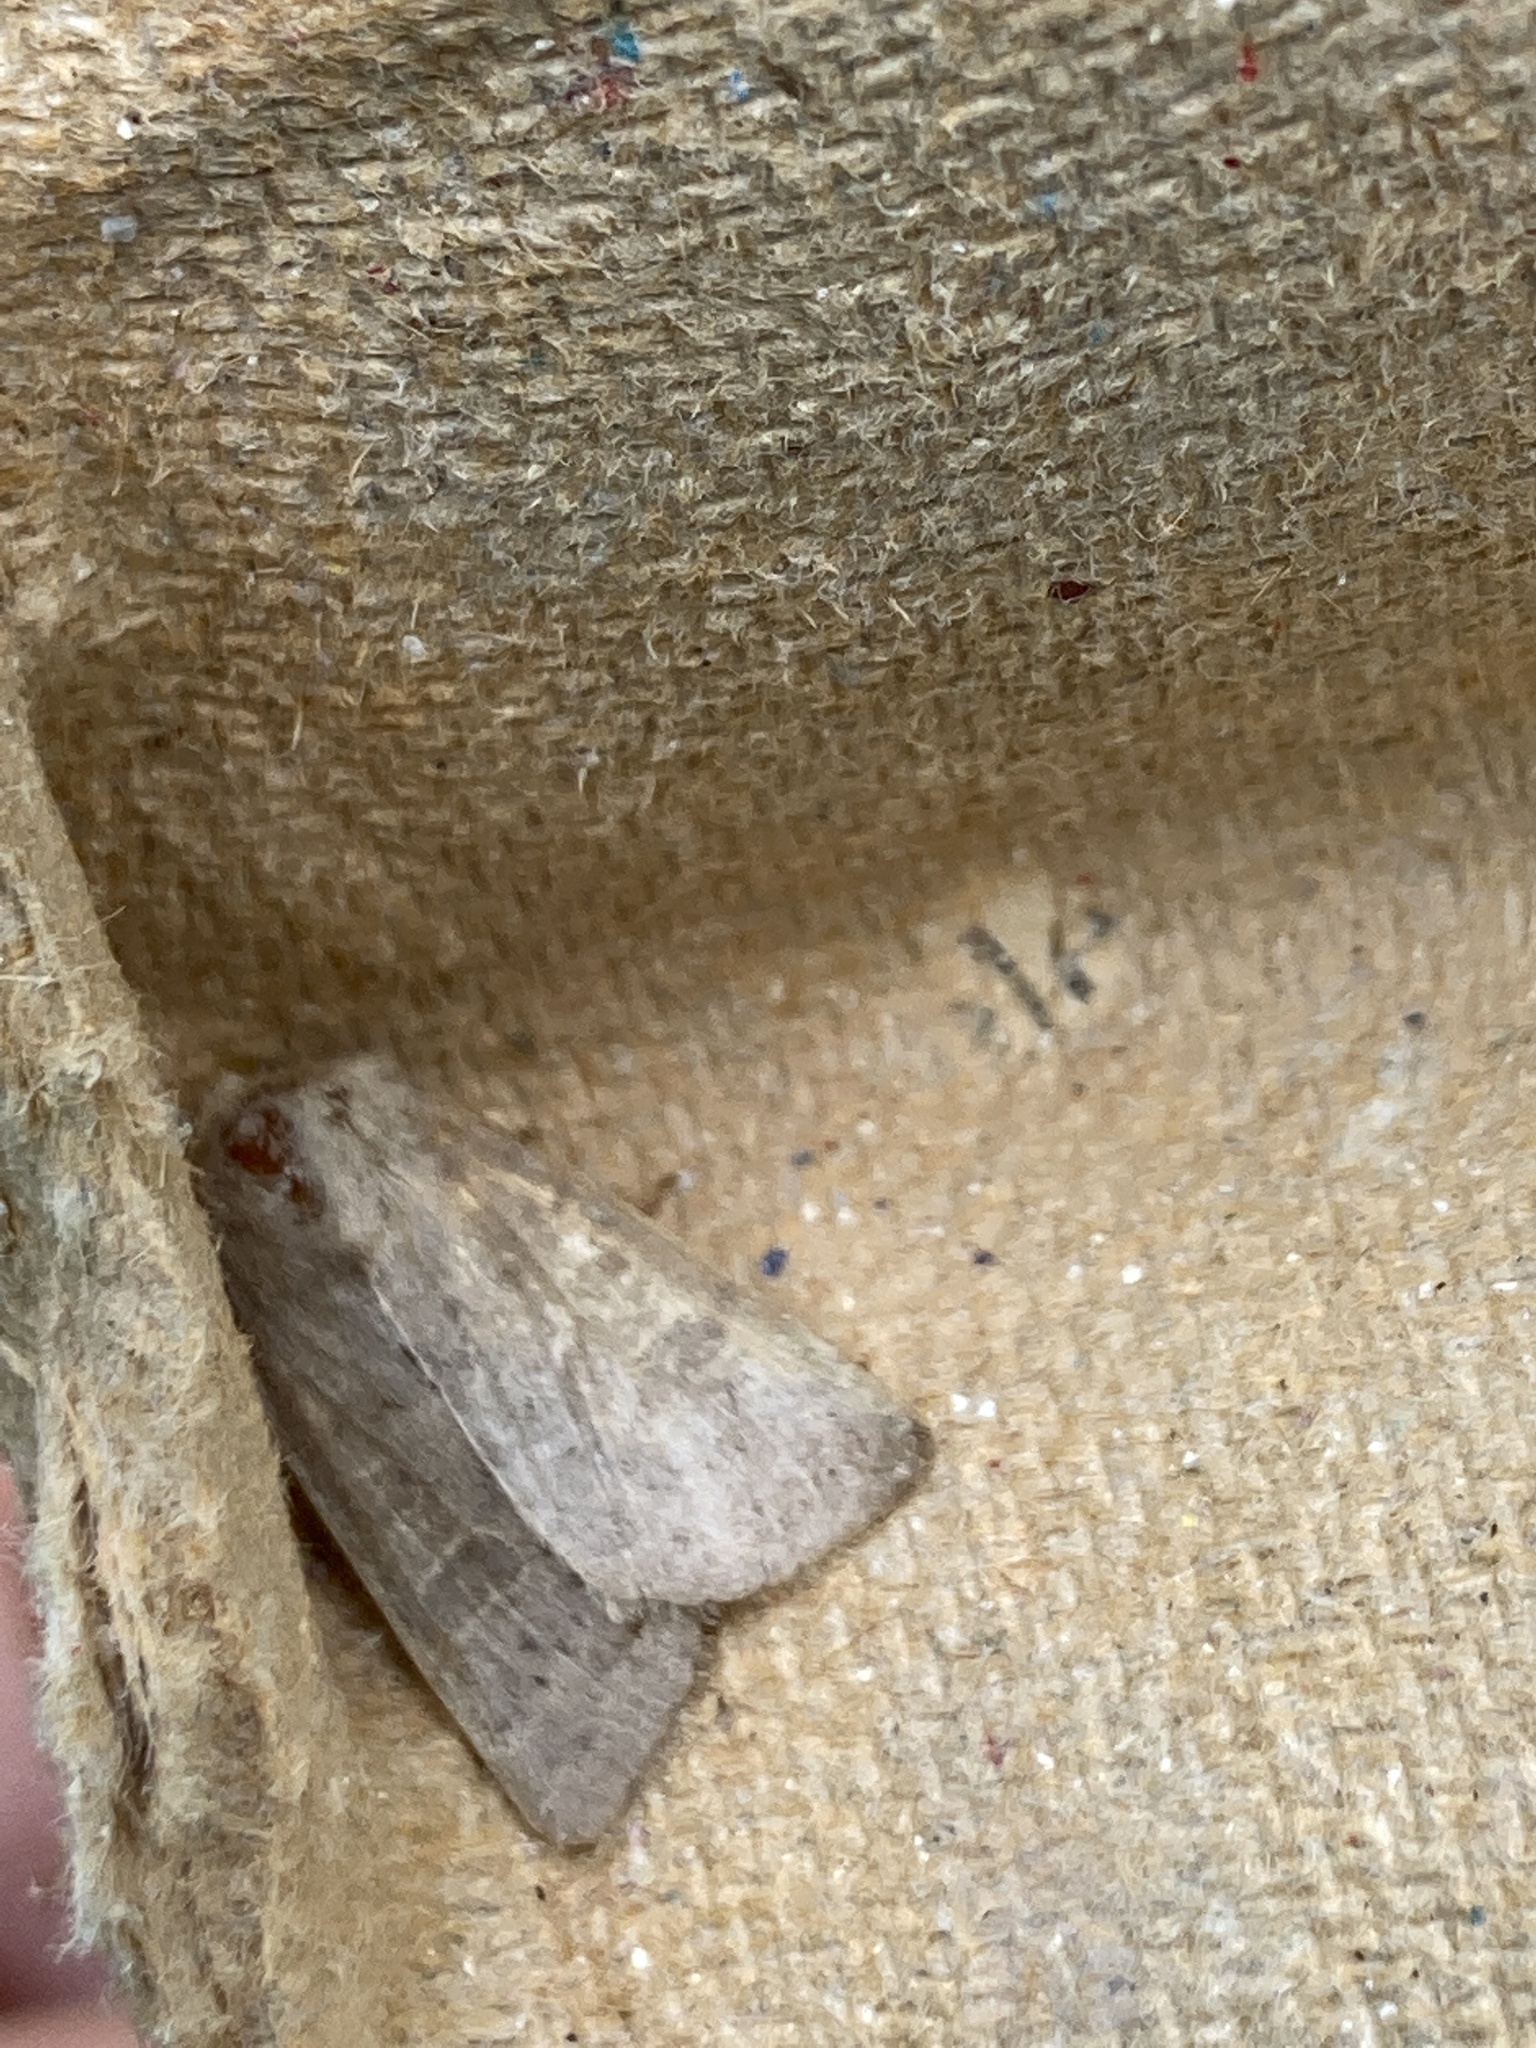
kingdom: Animalia
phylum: Arthropoda
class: Insecta
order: Lepidoptera
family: Noctuidae
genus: Hoplodrina
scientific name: Hoplodrina ambigua
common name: Vine's rustic
